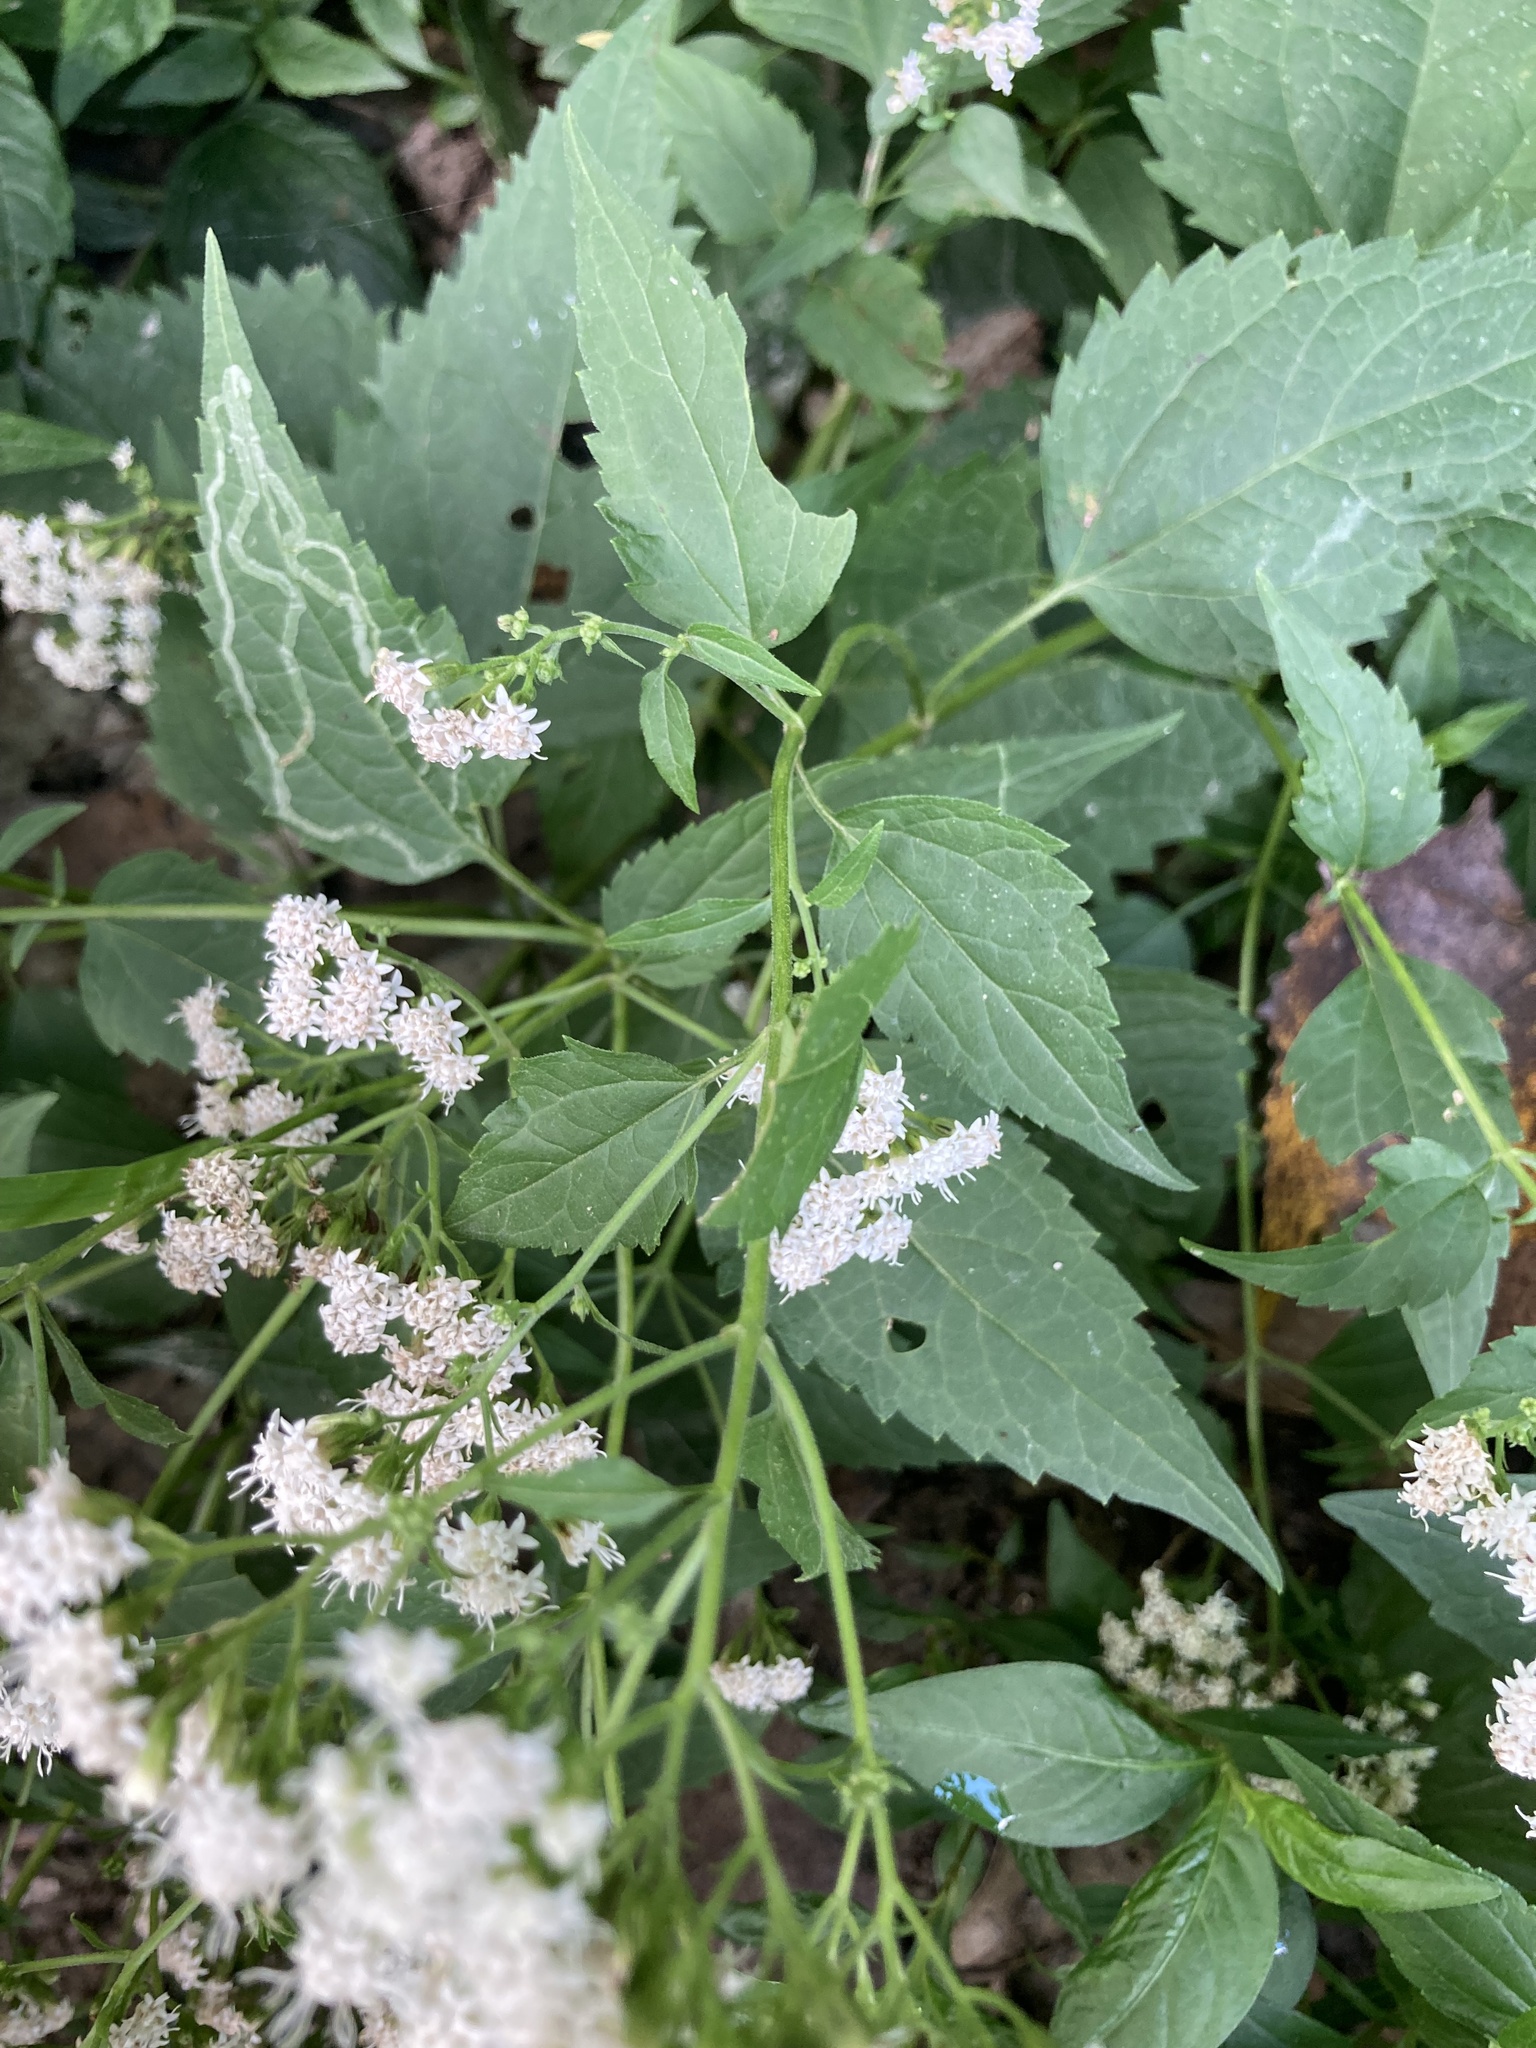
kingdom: Plantae
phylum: Tracheophyta
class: Magnoliopsida
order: Asterales
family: Asteraceae
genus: Ageratina
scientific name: Ageratina altissima
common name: White snakeroot
